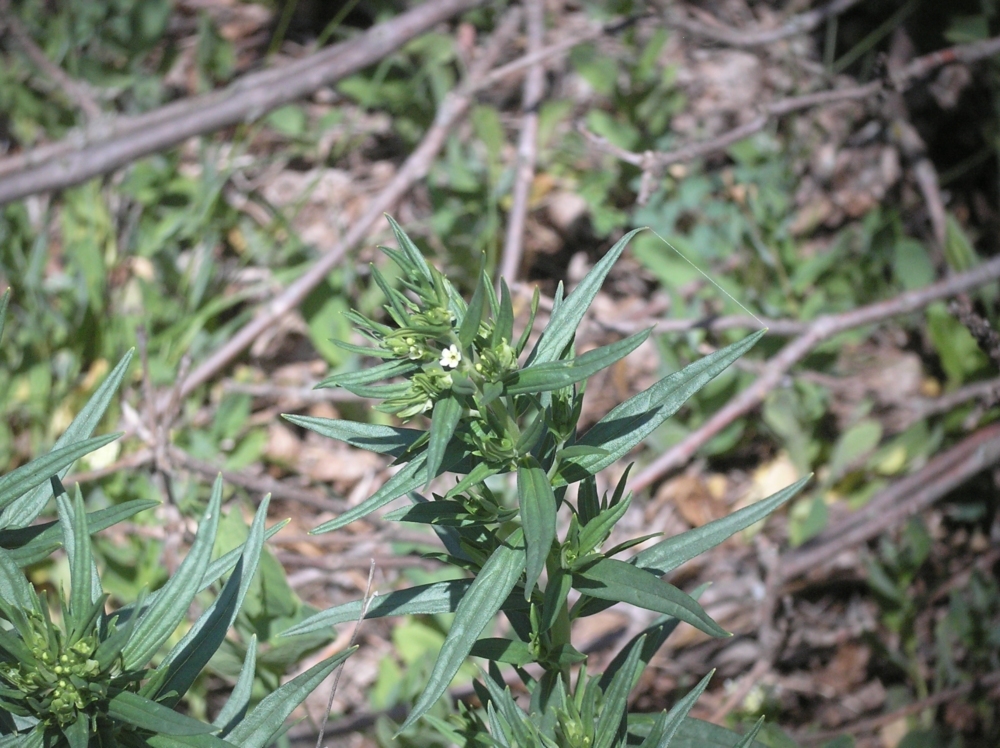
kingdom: Plantae
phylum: Tracheophyta
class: Magnoliopsida
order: Boraginales
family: Boraginaceae
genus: Lithospermum
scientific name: Lithospermum officinale
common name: Common gromwell
